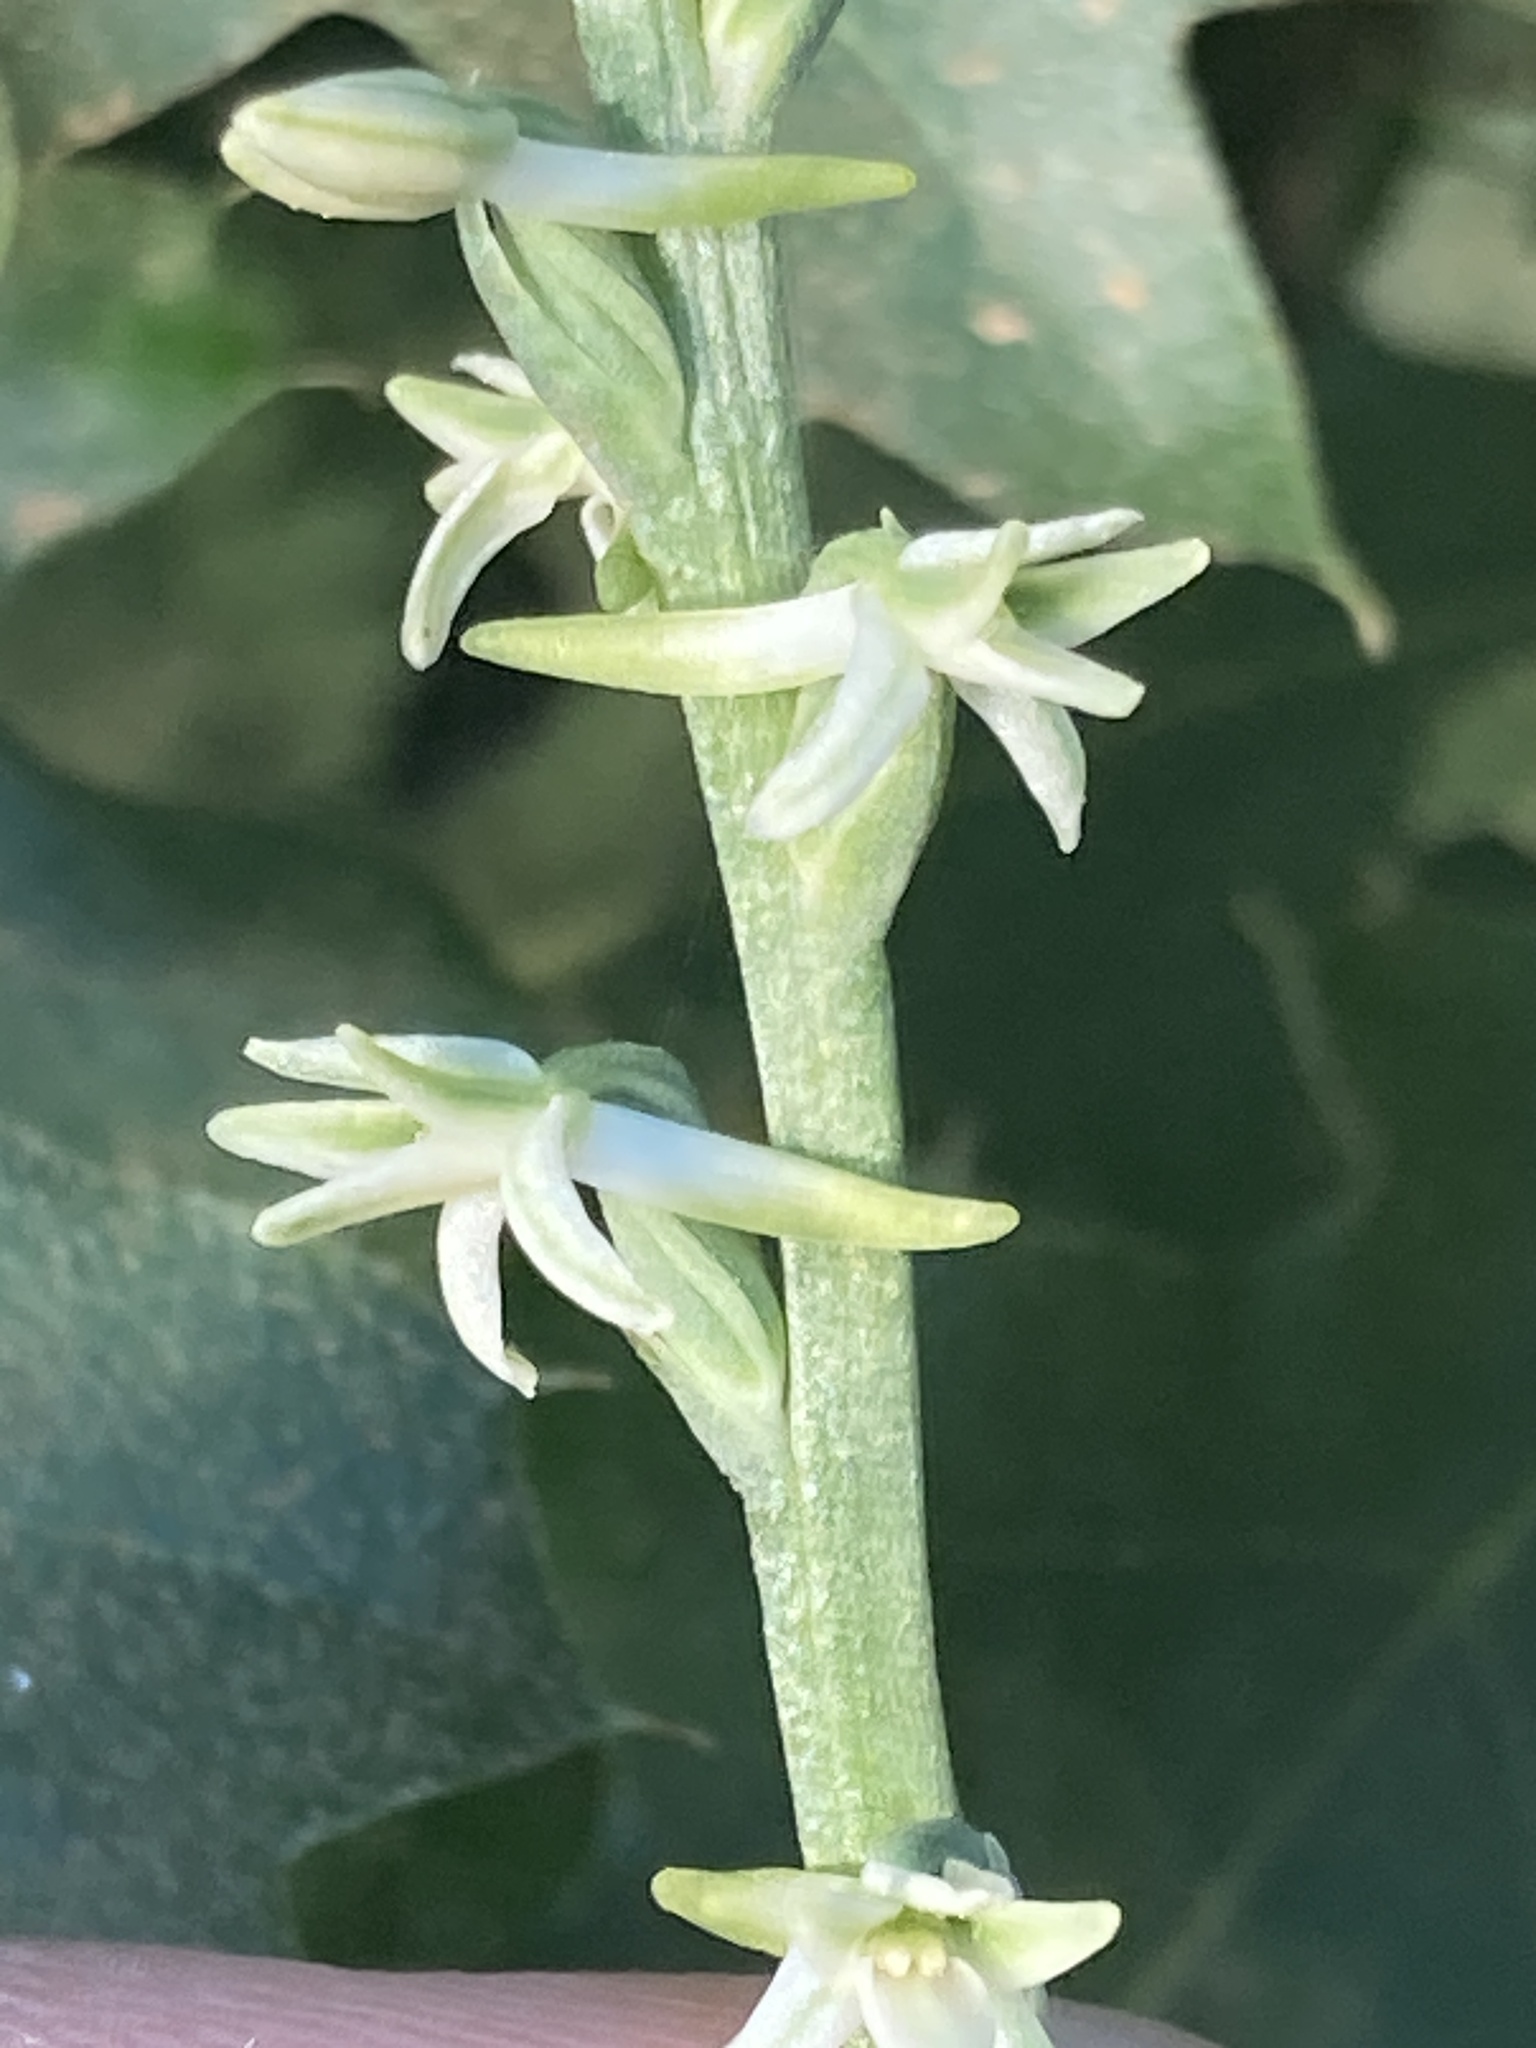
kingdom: Plantae
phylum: Tracheophyta
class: Liliopsida
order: Asparagales
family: Orchidaceae
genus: Platanthera
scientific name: Platanthera transversa
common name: Royal rein orchid
